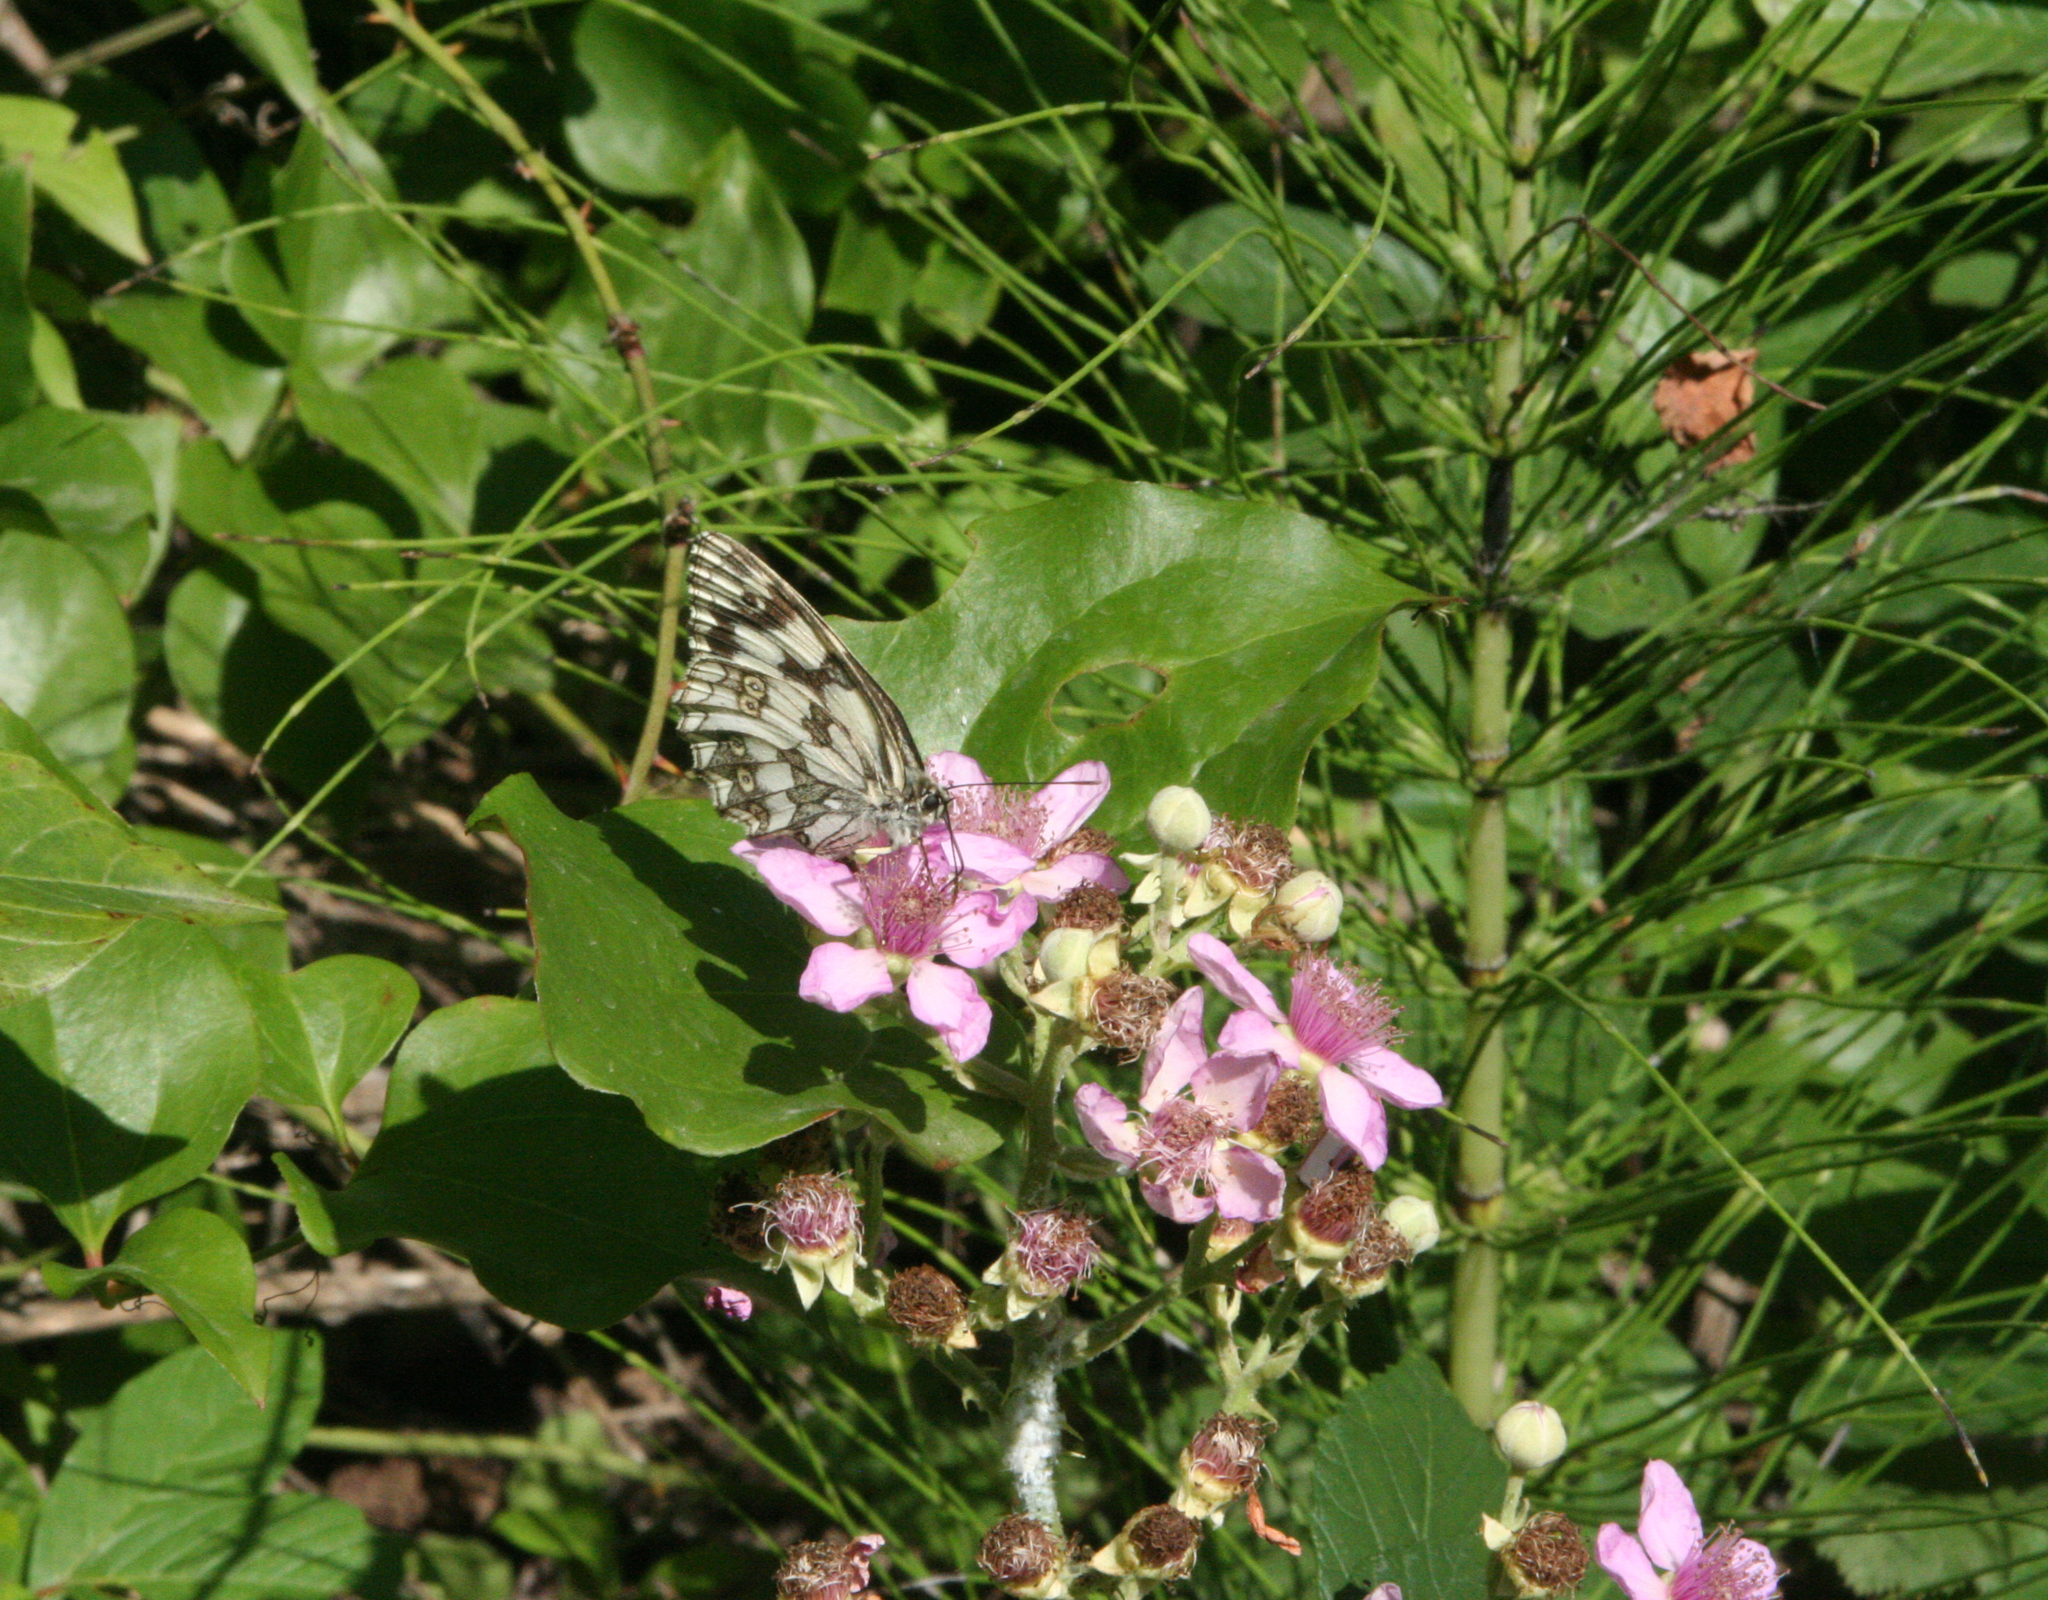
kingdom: Plantae
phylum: Tracheophyta
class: Polypodiopsida
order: Equisetales
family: Equisetaceae
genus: Equisetum
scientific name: Equisetum telmateia
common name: Great horsetail
